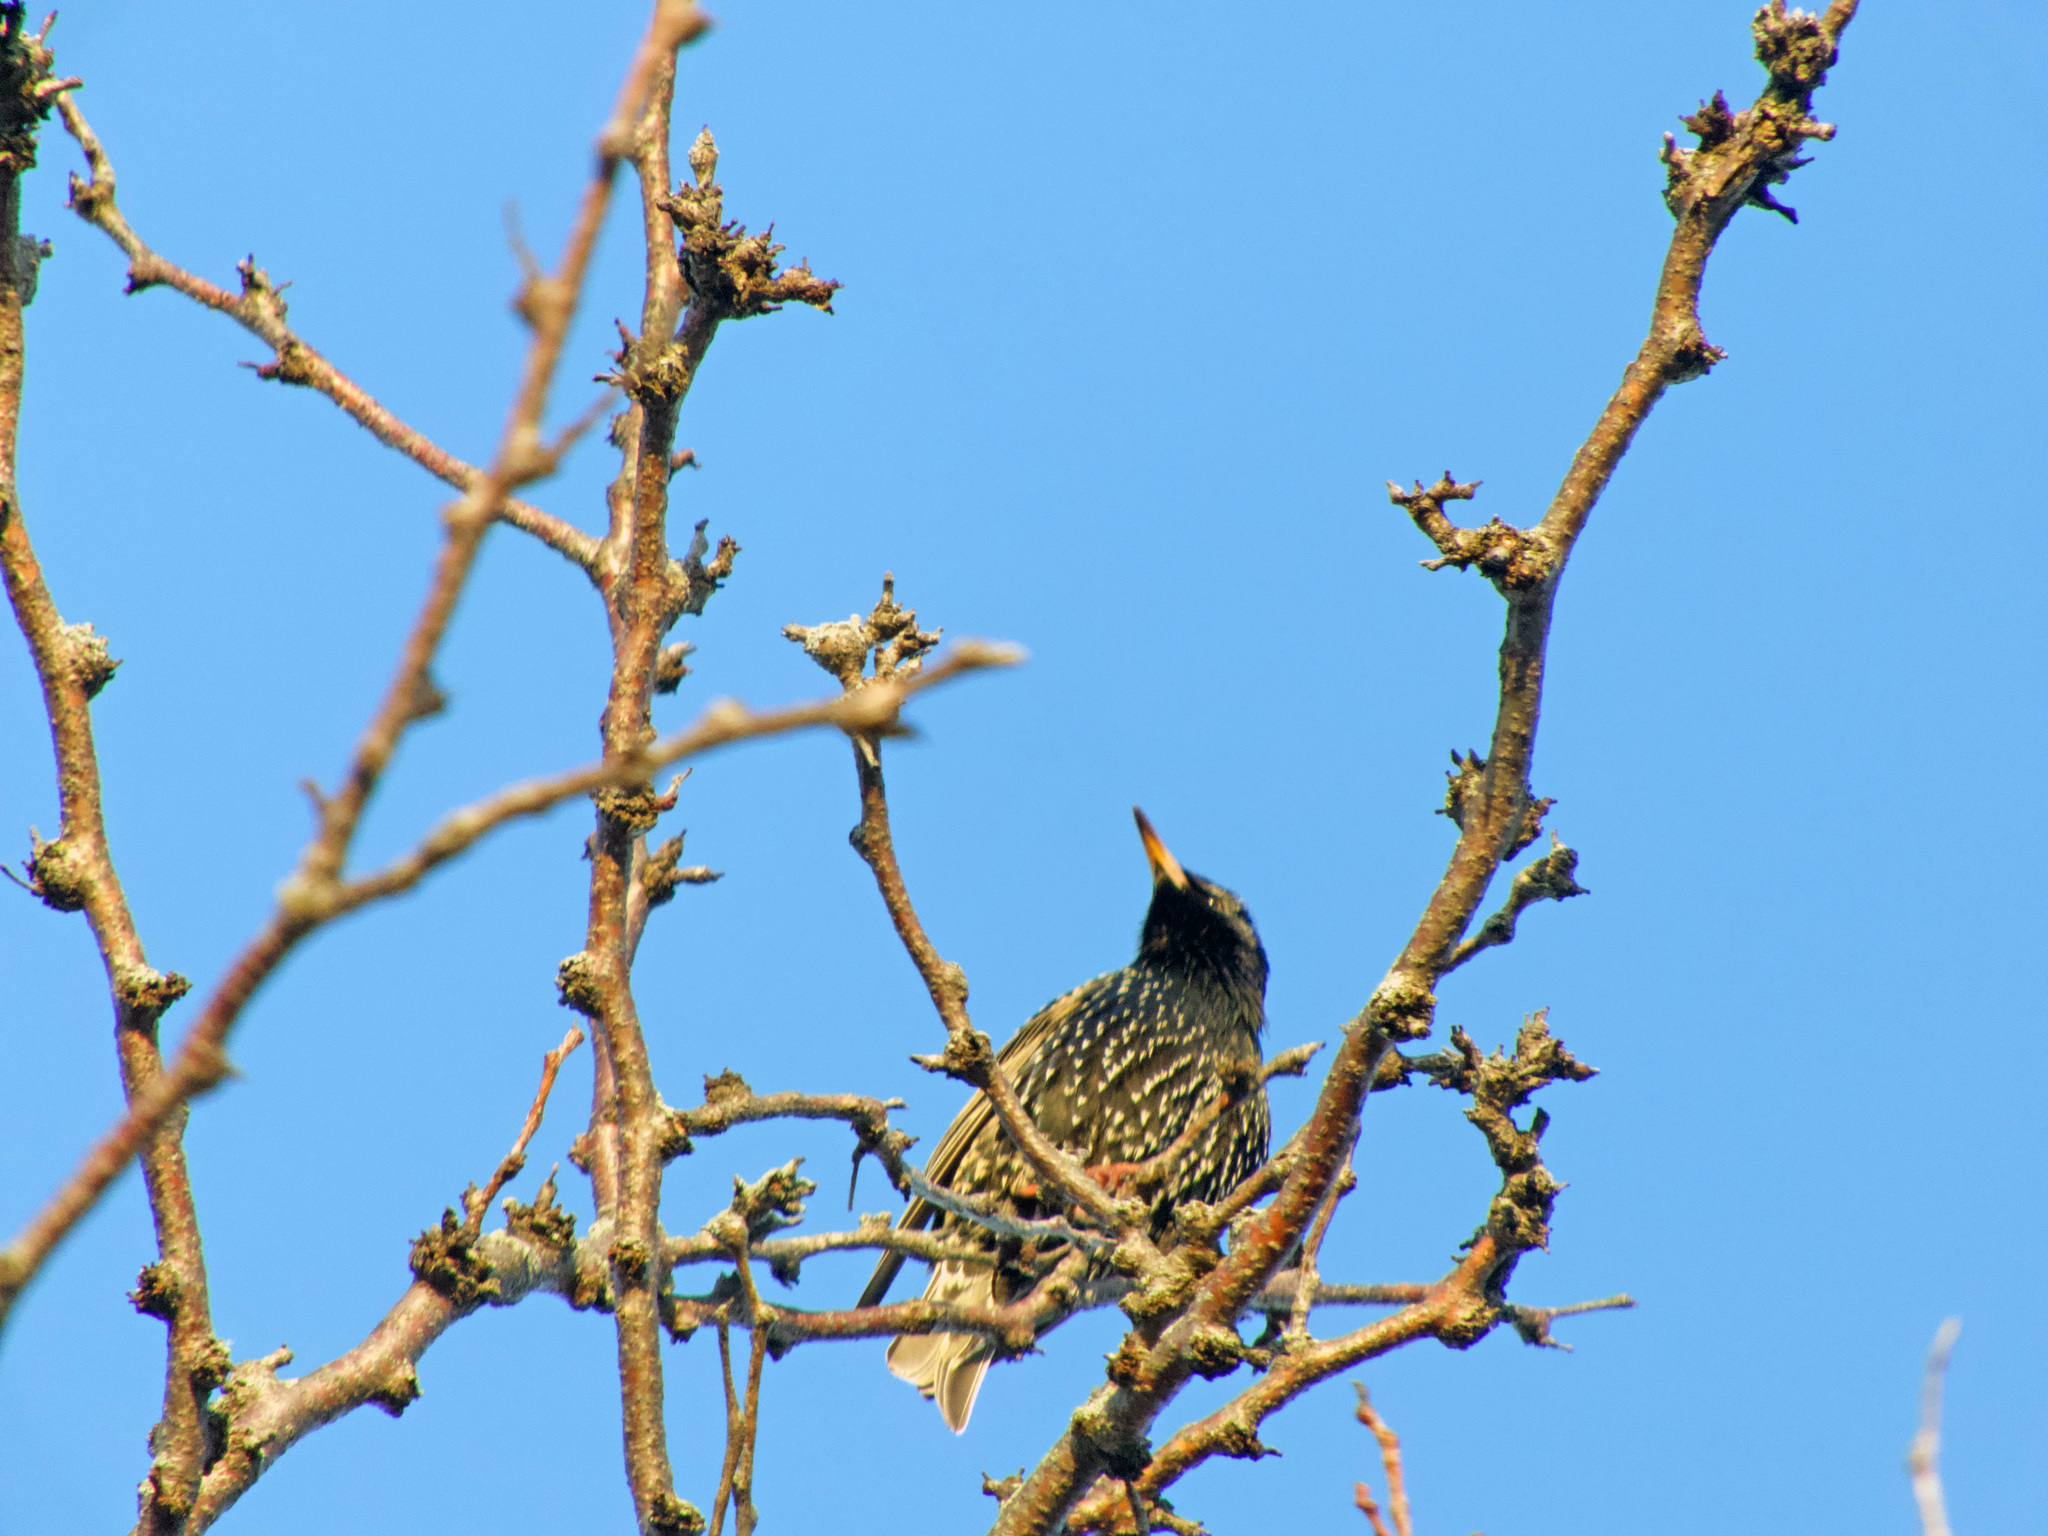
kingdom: Animalia
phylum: Chordata
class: Aves
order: Passeriformes
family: Sturnidae
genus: Sturnus
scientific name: Sturnus vulgaris
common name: Common starling
